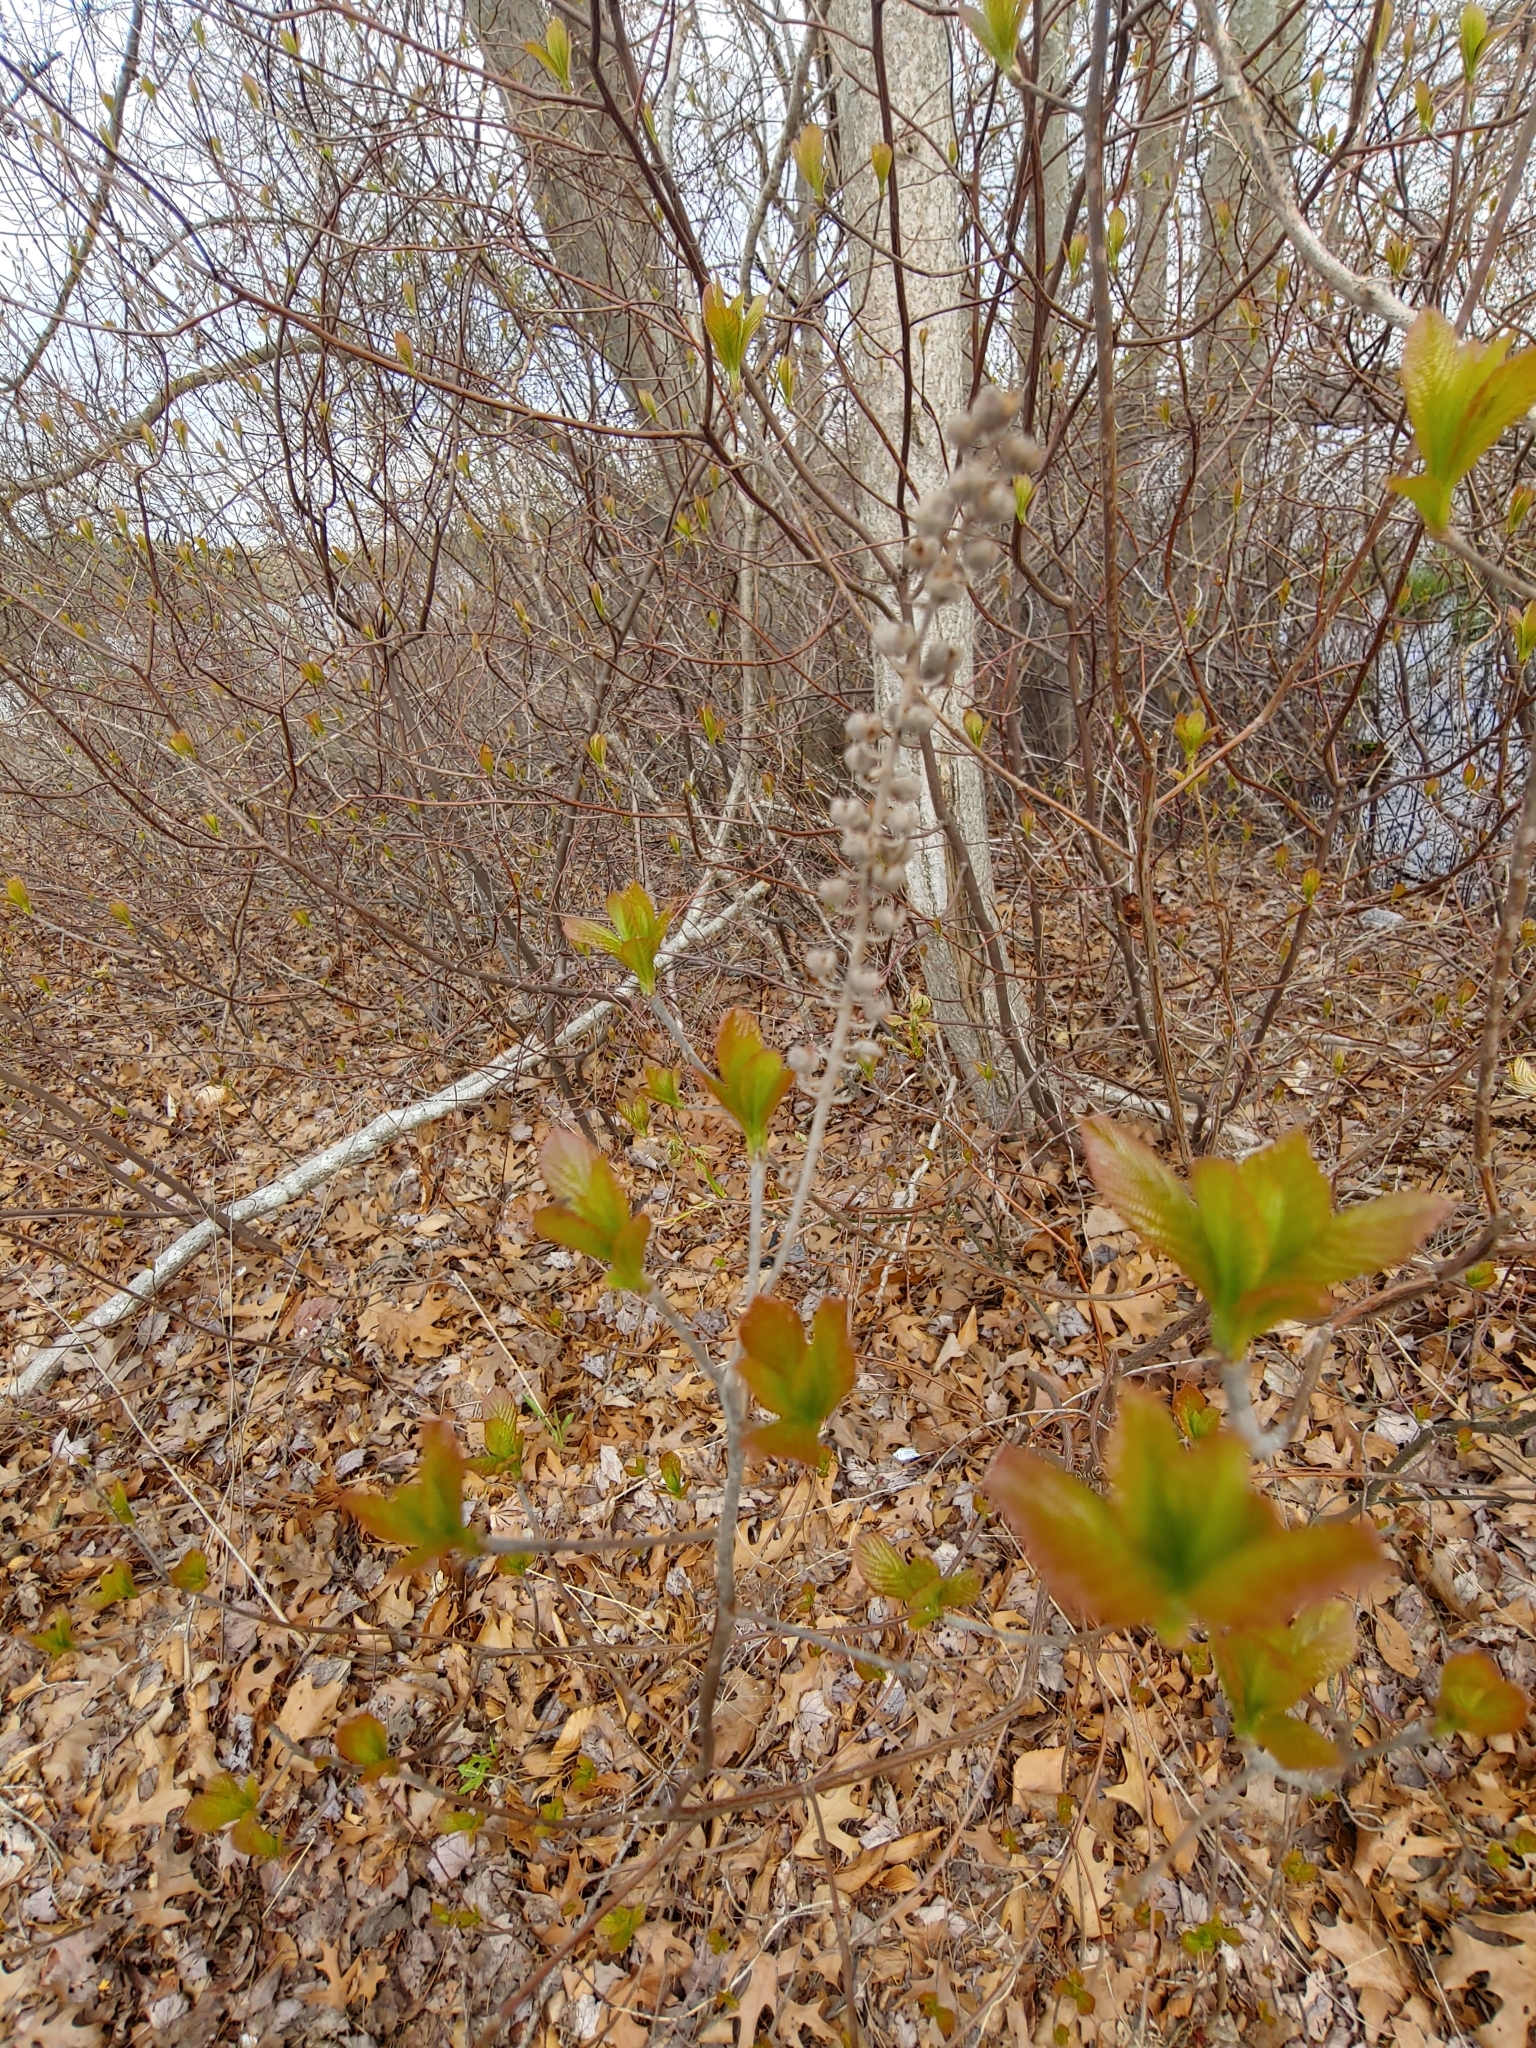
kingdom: Plantae
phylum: Tracheophyta
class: Magnoliopsida
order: Ericales
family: Clethraceae
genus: Clethra
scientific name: Clethra alnifolia
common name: Sweet pepperbush
